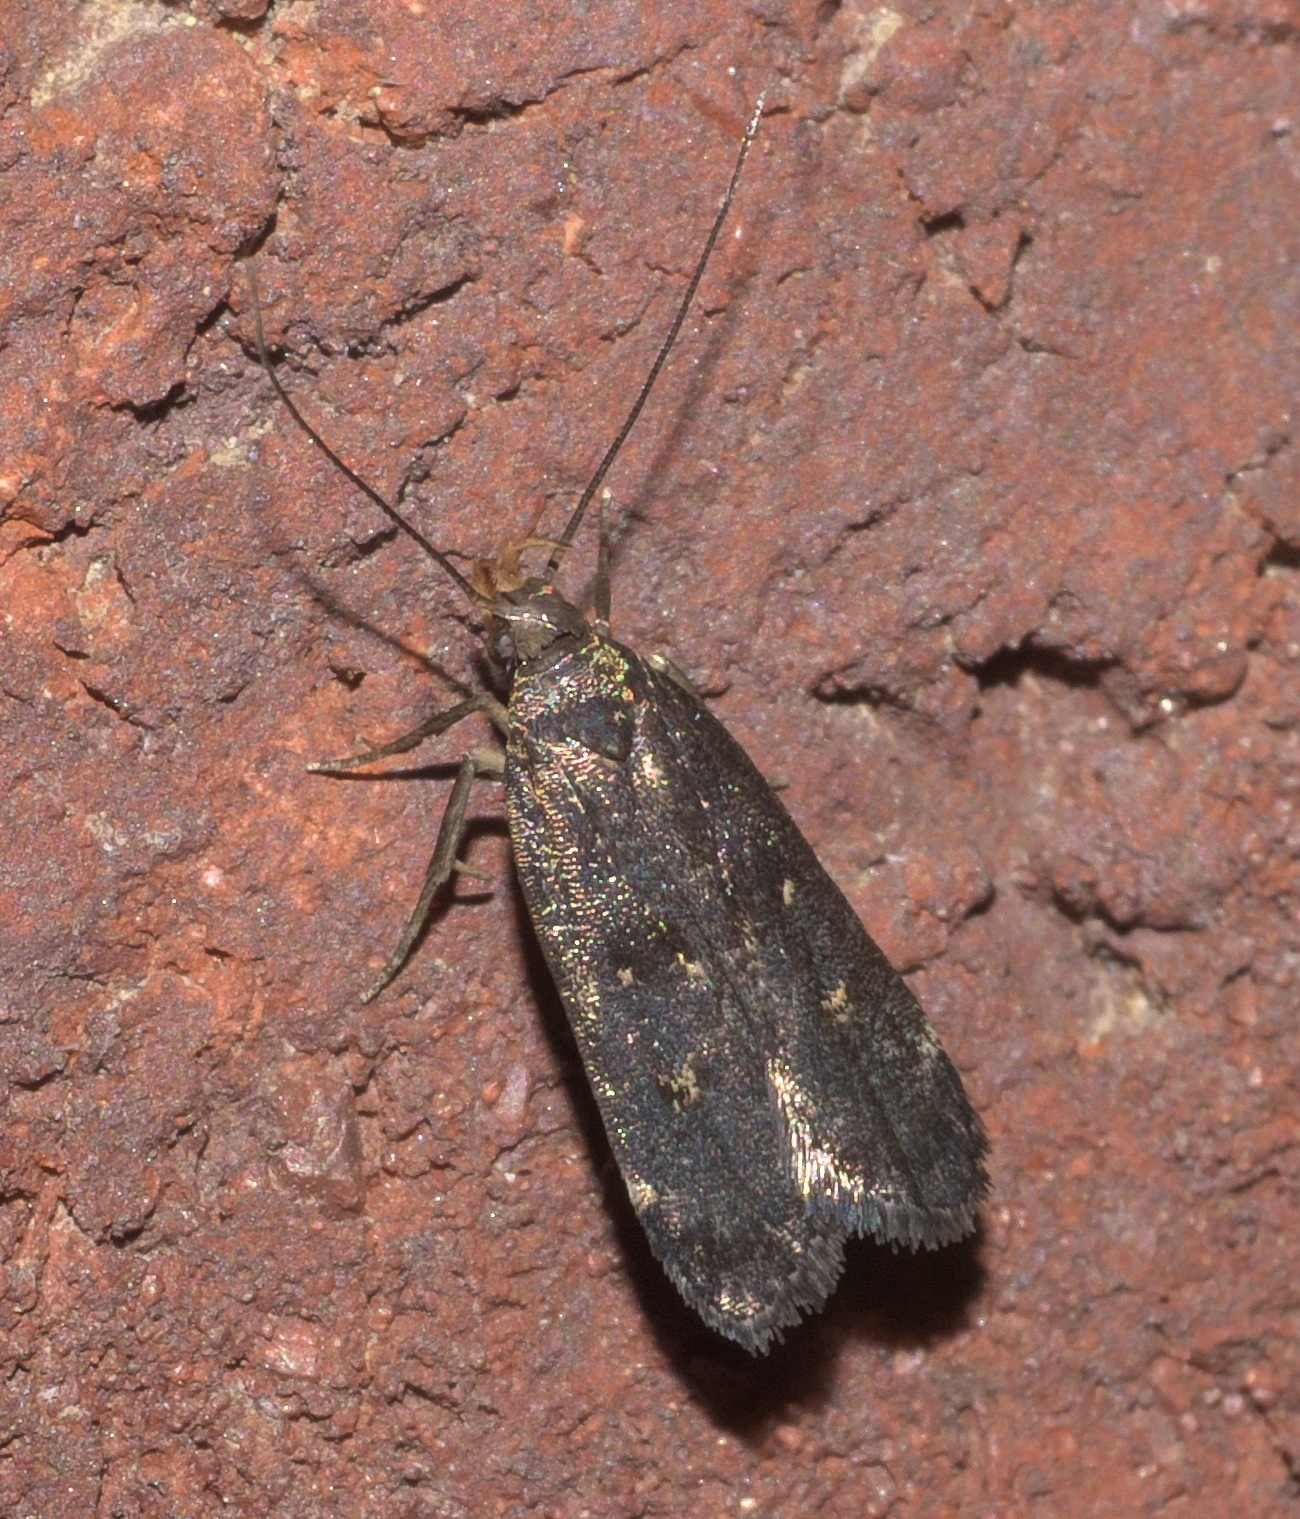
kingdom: Animalia
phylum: Arthropoda
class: Insecta
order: Lepidoptera
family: Gelechiidae
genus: Dichomeris
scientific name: Dichomeris juncidella
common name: Orange-dotted dichomeris moth
